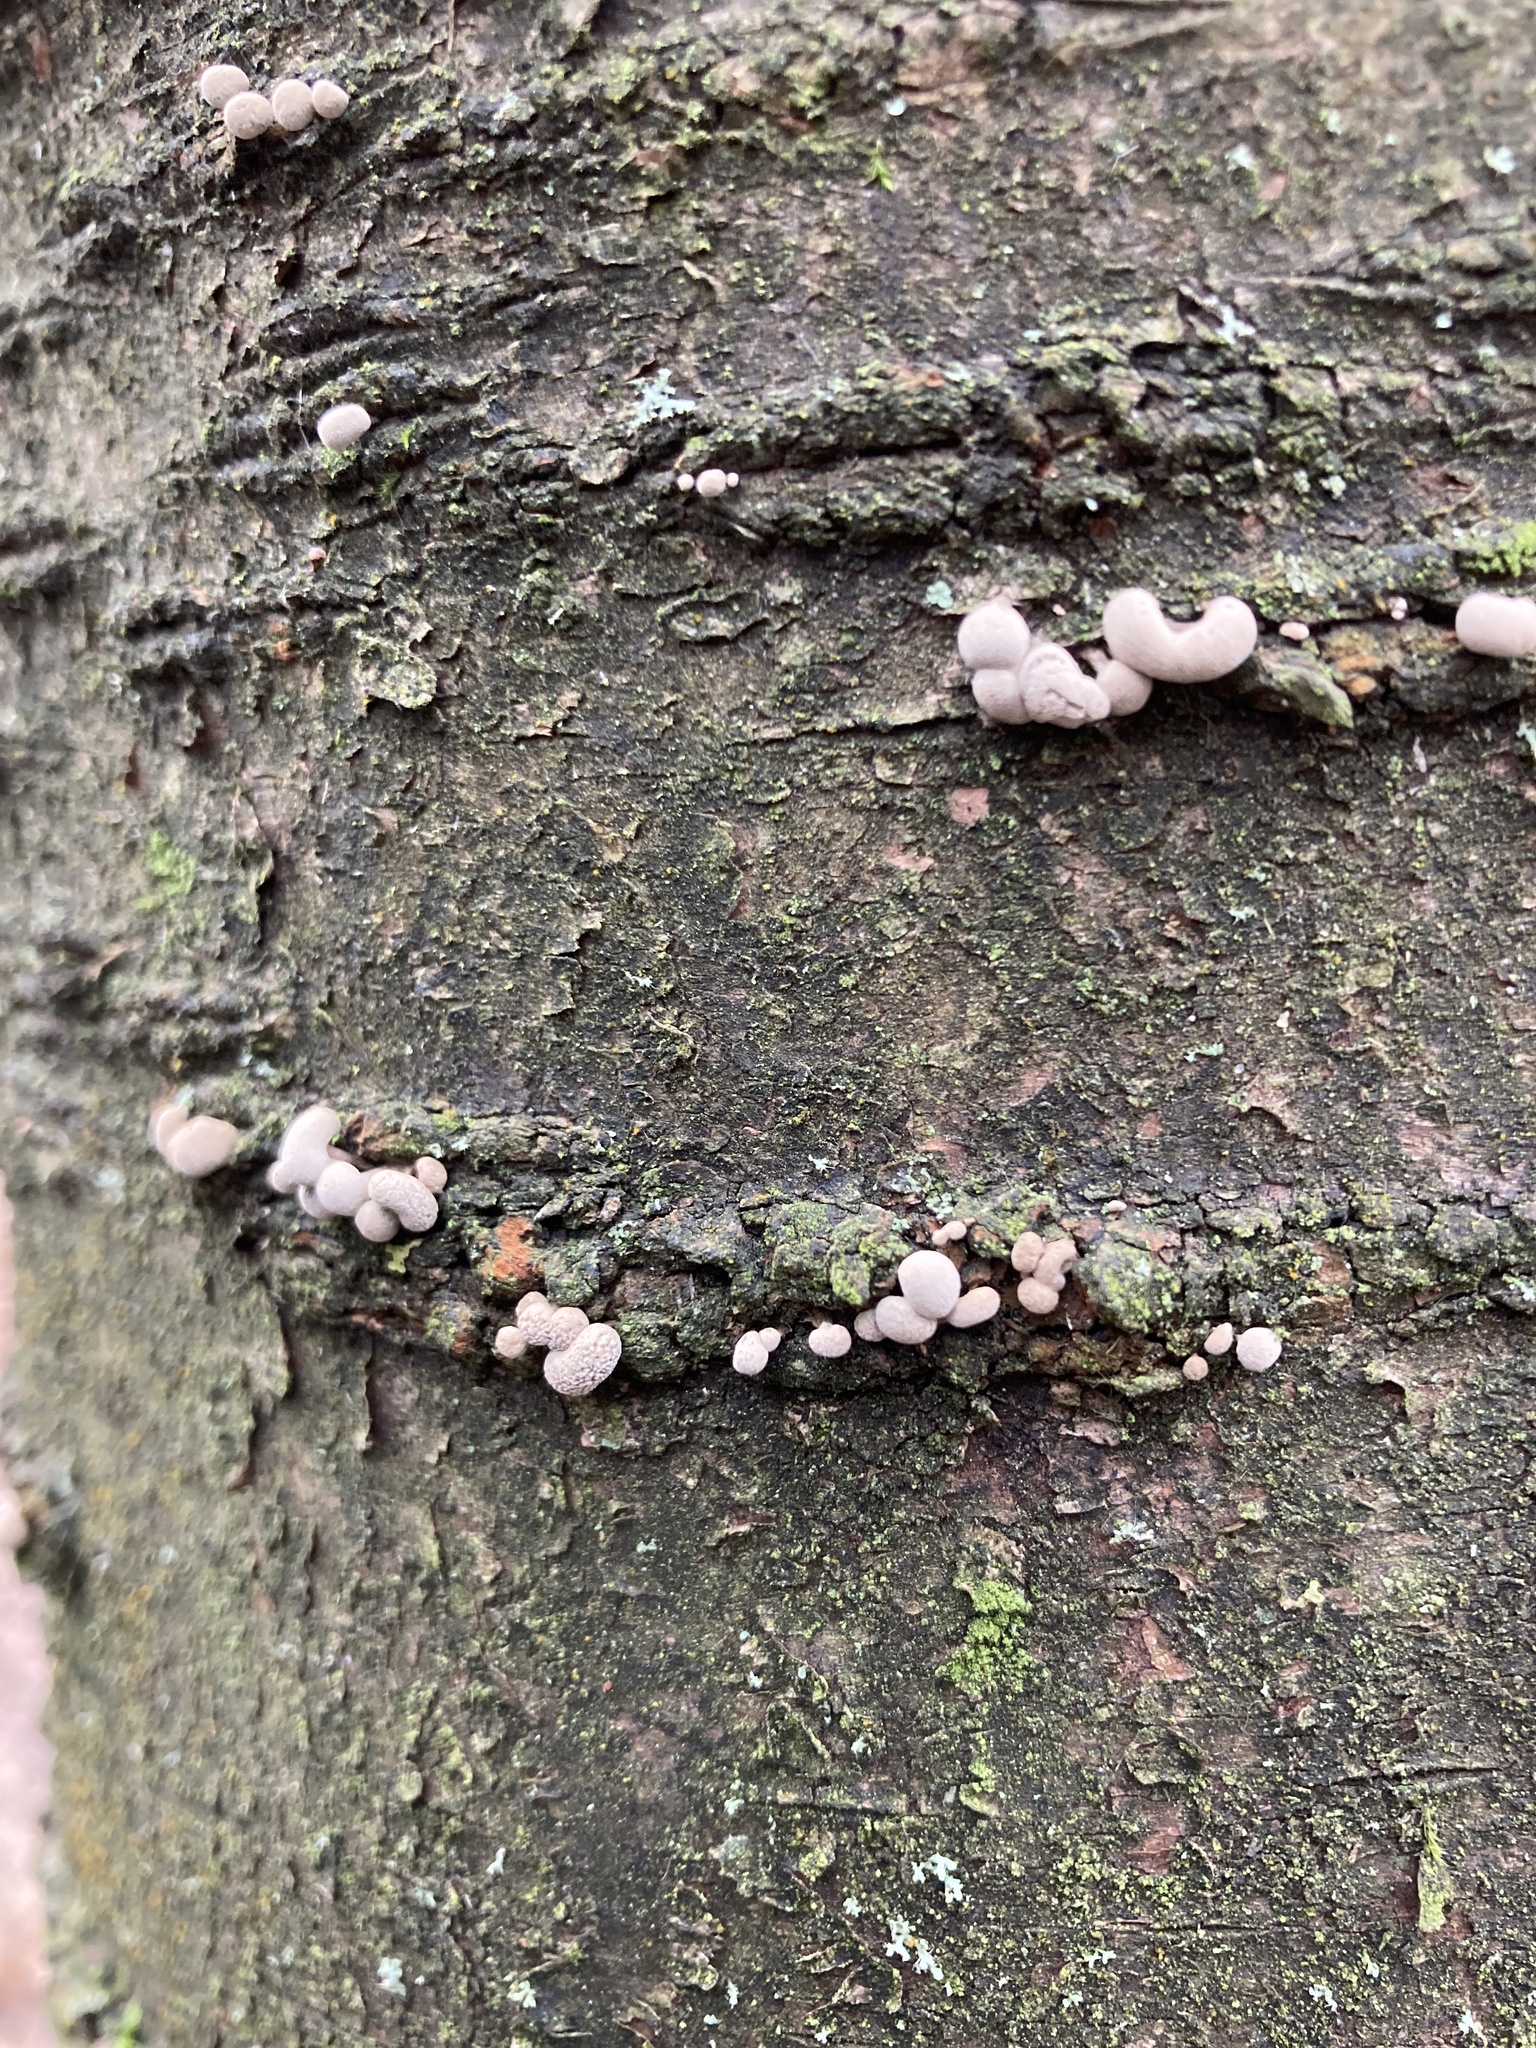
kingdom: Fungi
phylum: Basidiomycota
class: Atractiellomycetes
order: Atractiellales
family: Phleogenaceae
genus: Phleogena
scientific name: Phleogena faginea
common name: Fenugreek stalkball
